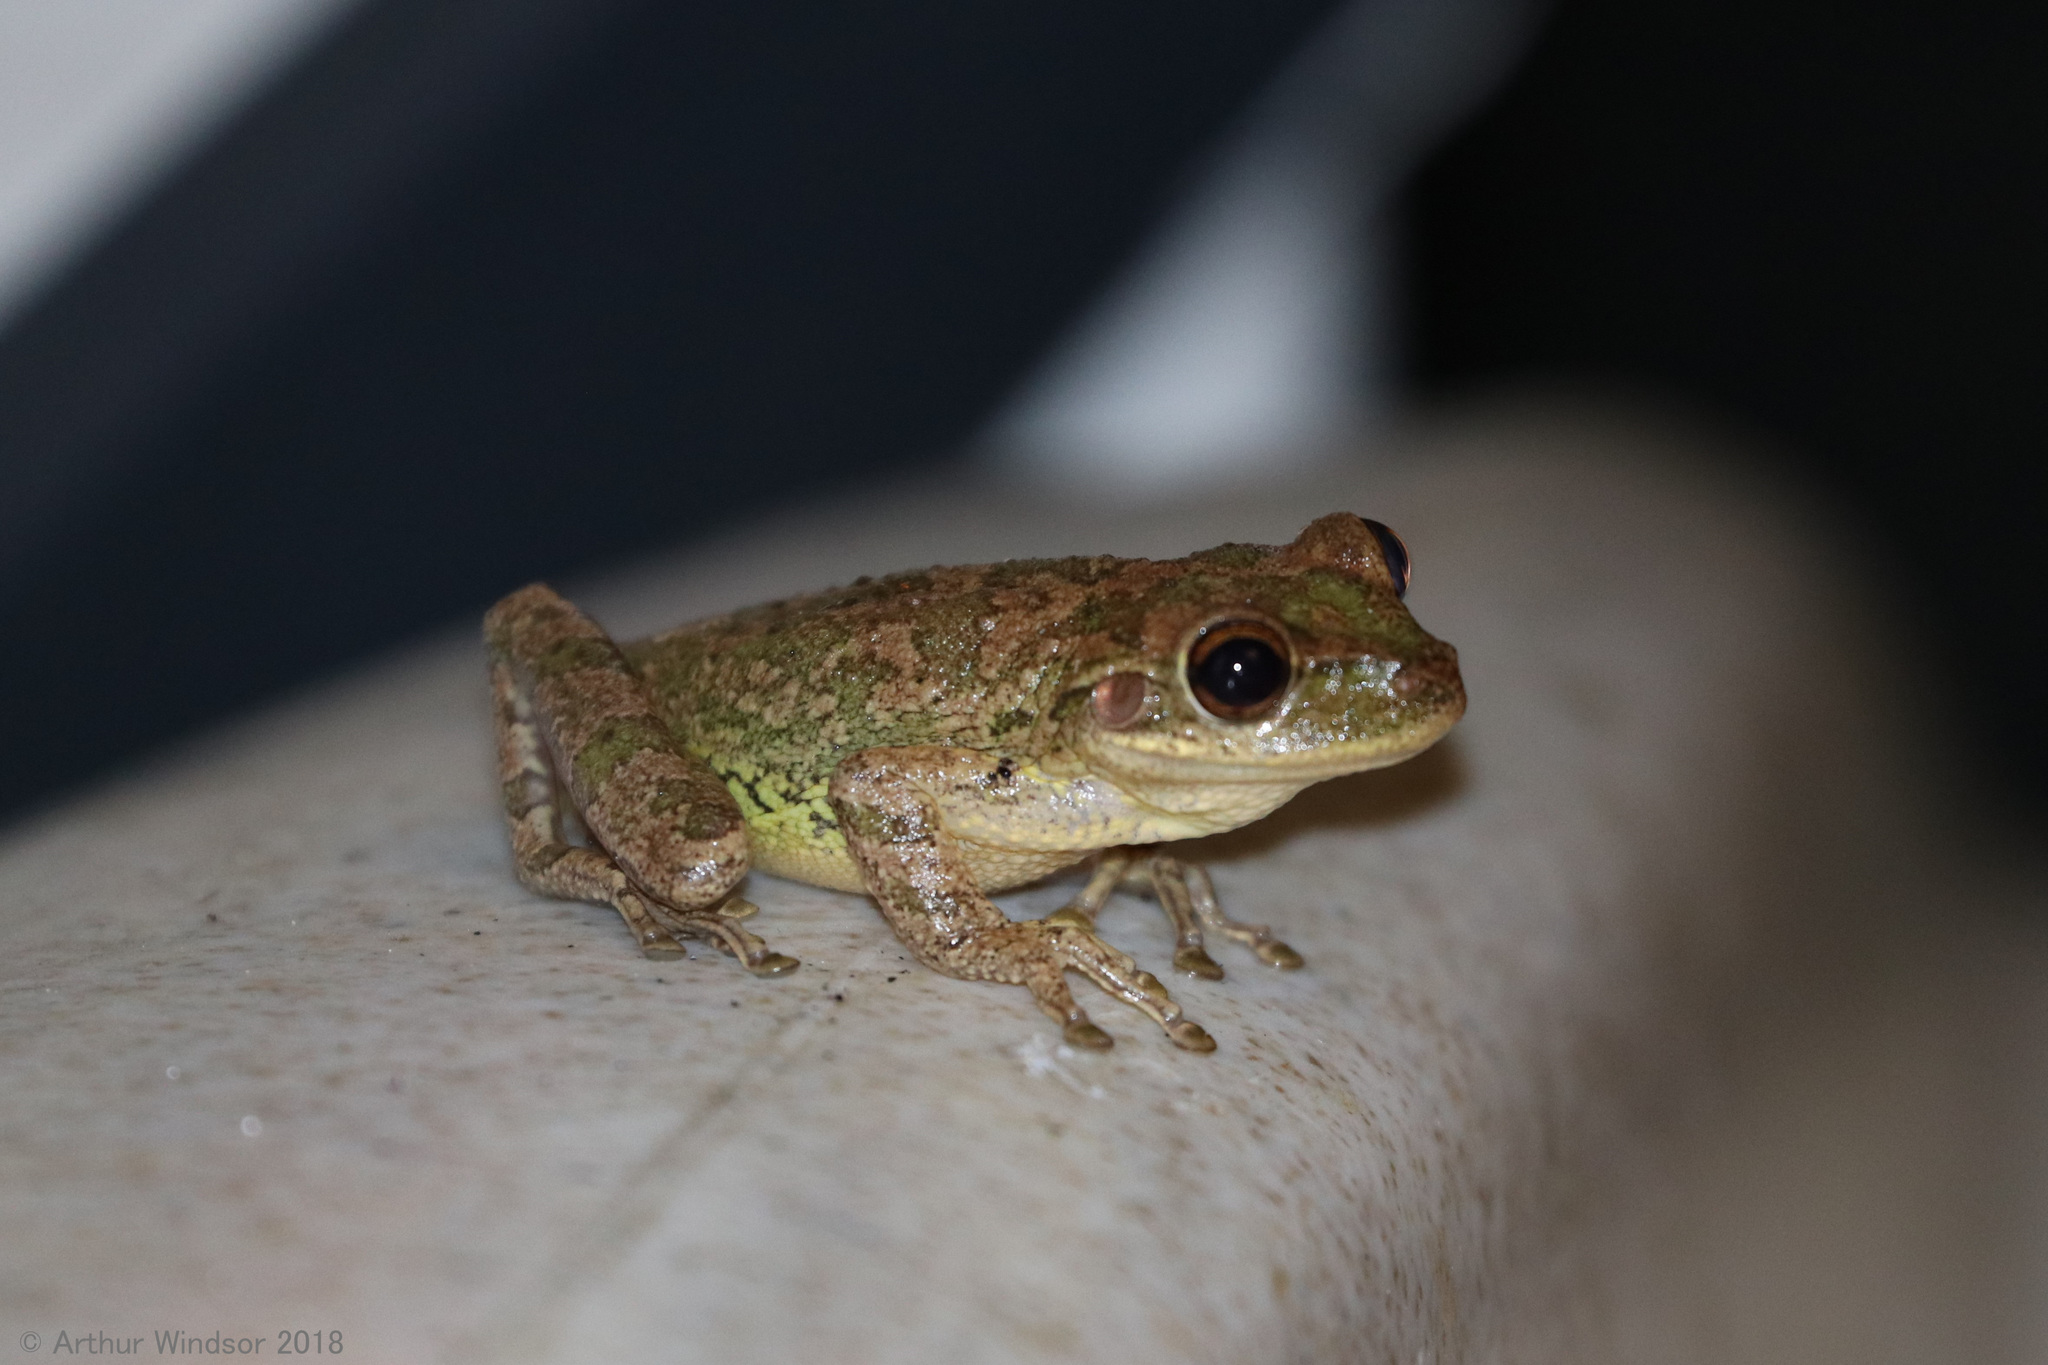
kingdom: Animalia
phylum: Chordata
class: Amphibia
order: Anura
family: Hylidae
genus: Osteopilus
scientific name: Osteopilus septentrionalis
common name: Cuban treefrog
